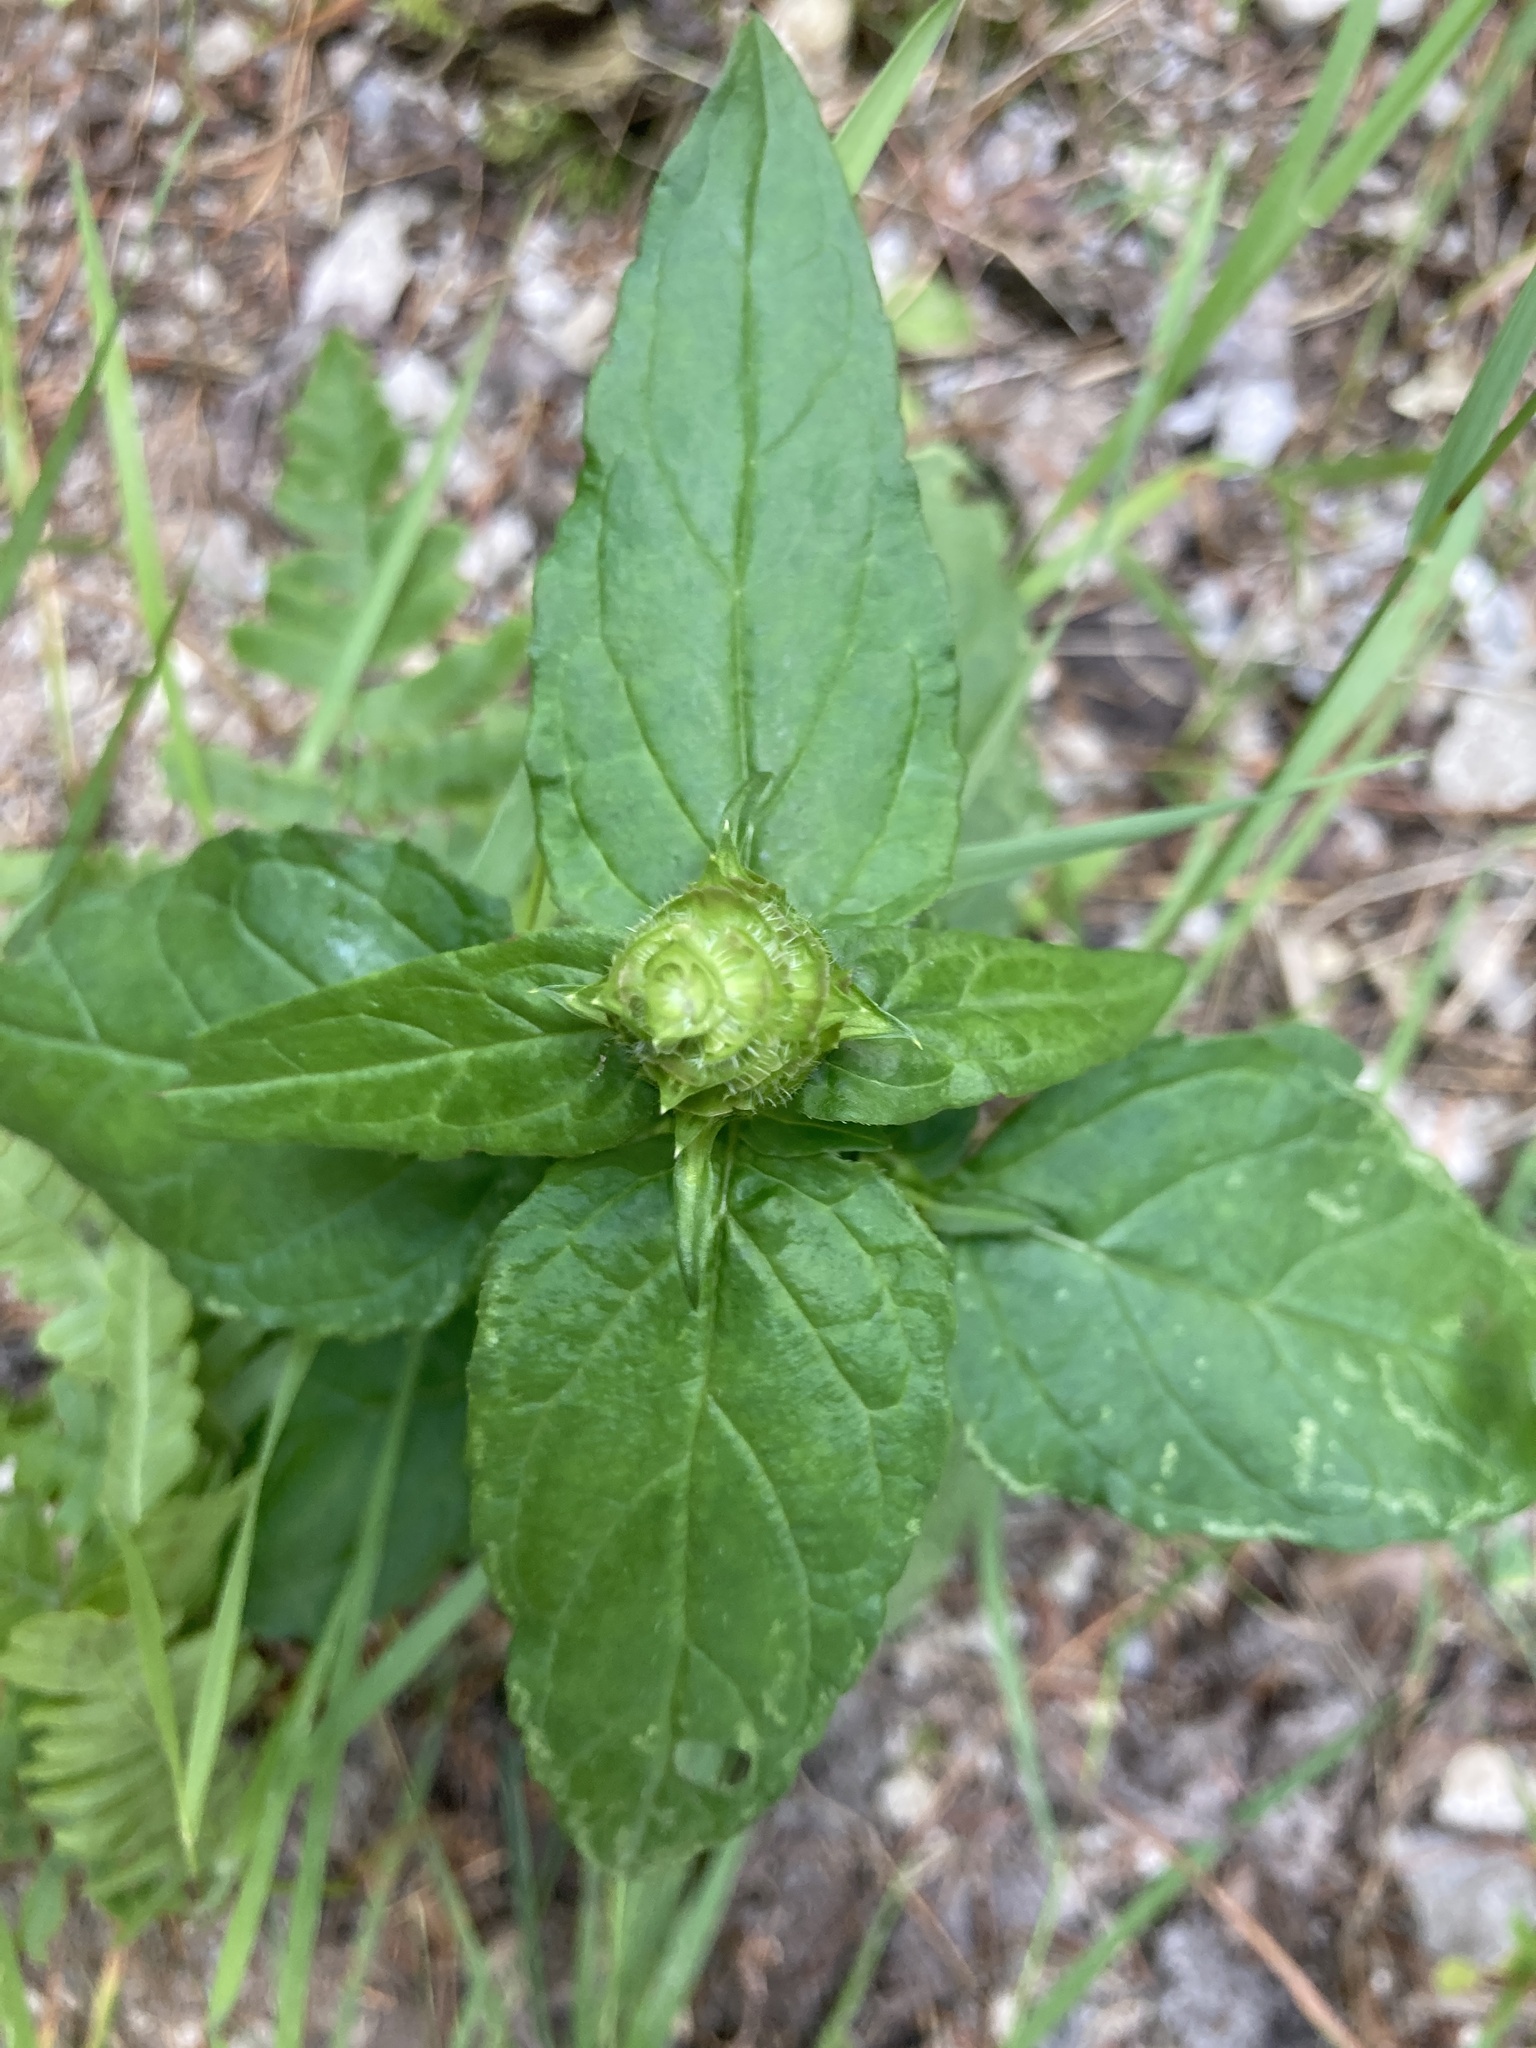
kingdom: Plantae
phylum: Tracheophyta
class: Magnoliopsida
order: Lamiales
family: Lamiaceae
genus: Prunella
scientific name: Prunella vulgaris
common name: Heal-all
